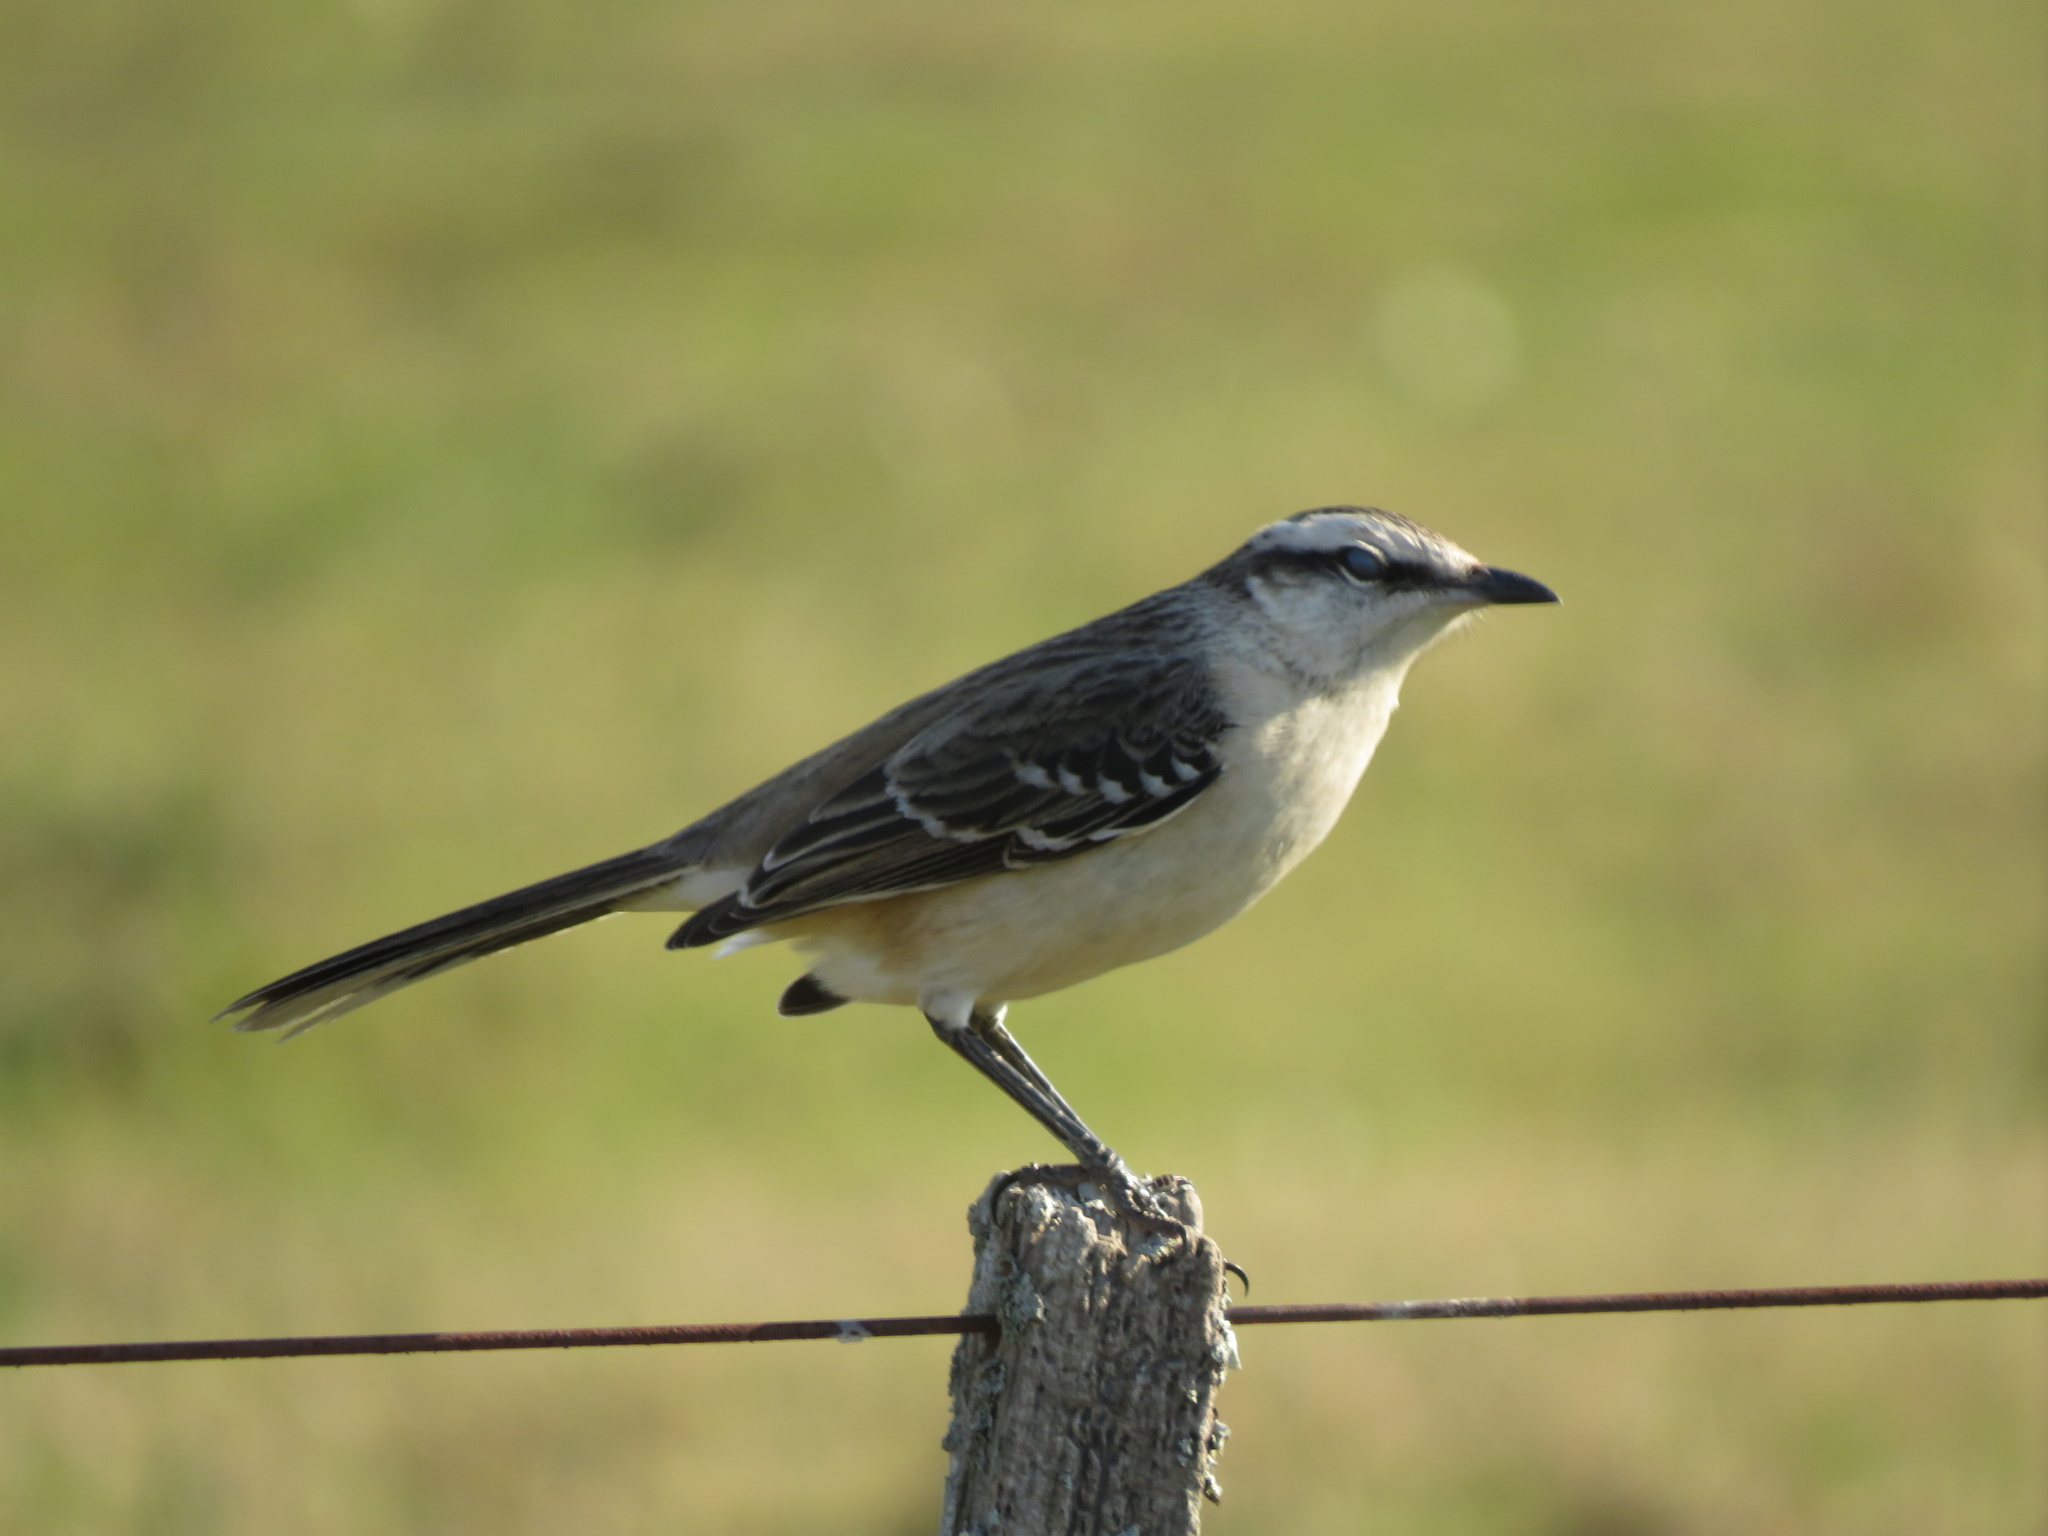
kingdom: Animalia
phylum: Chordata
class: Aves
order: Passeriformes
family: Mimidae
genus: Mimus
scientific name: Mimus saturninus
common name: Chalk-browed mockingbird
